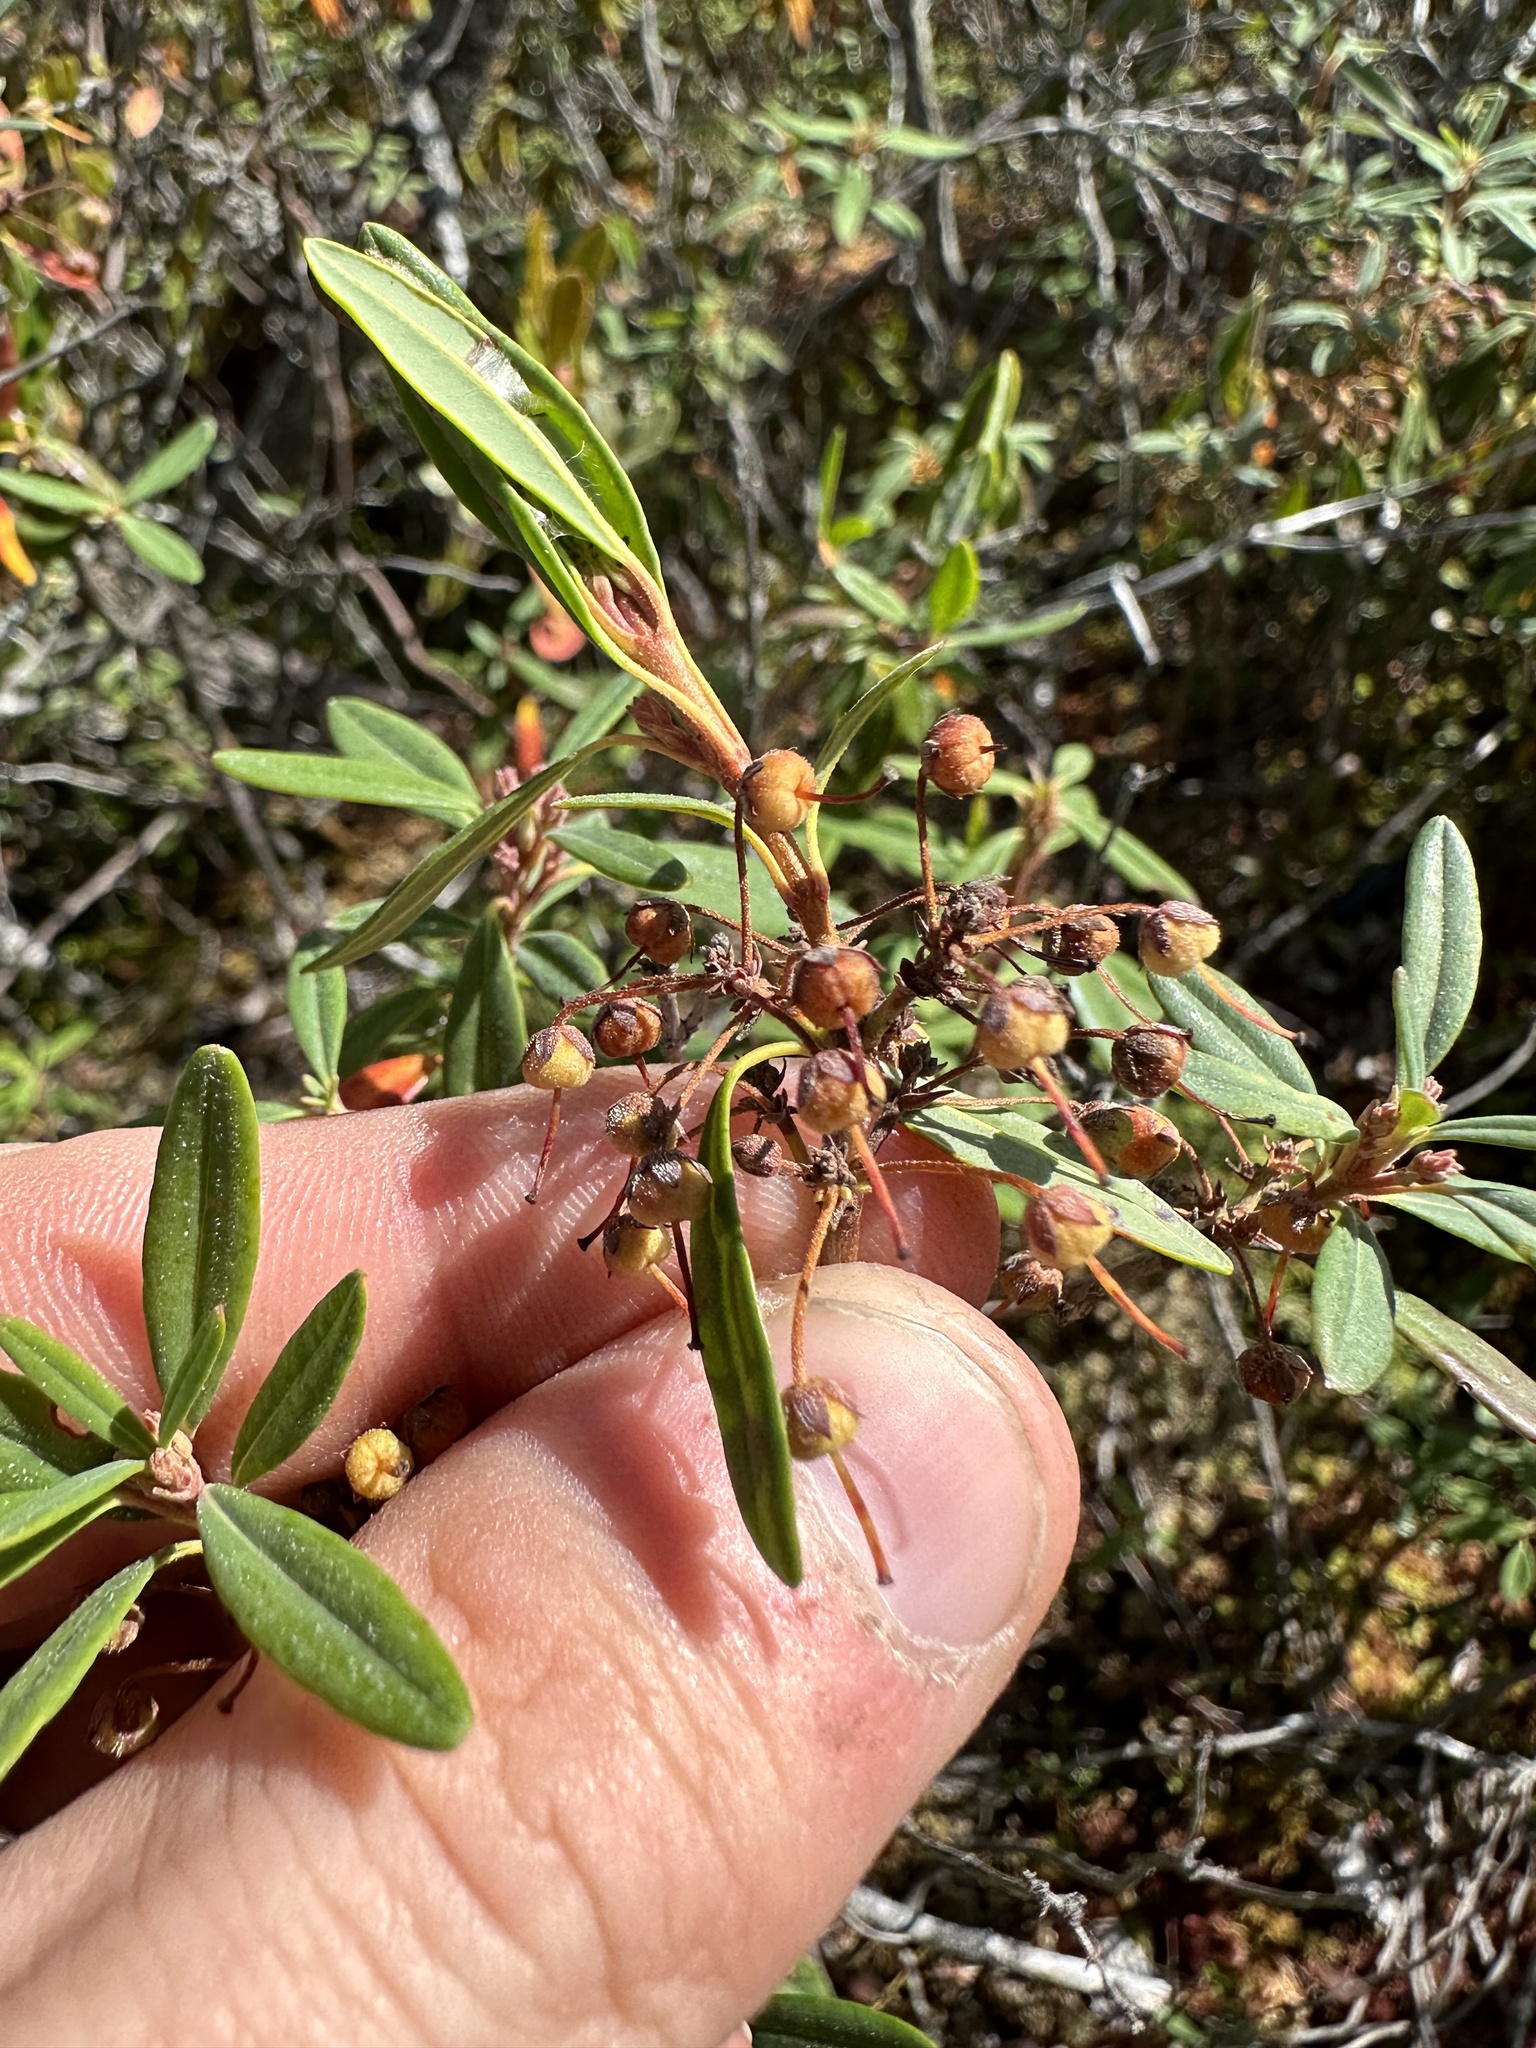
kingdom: Plantae
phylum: Tracheophyta
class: Magnoliopsida
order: Ericales
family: Ericaceae
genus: Rhododendron
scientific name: Rhododendron groenlandicum
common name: Bog labrador tea
